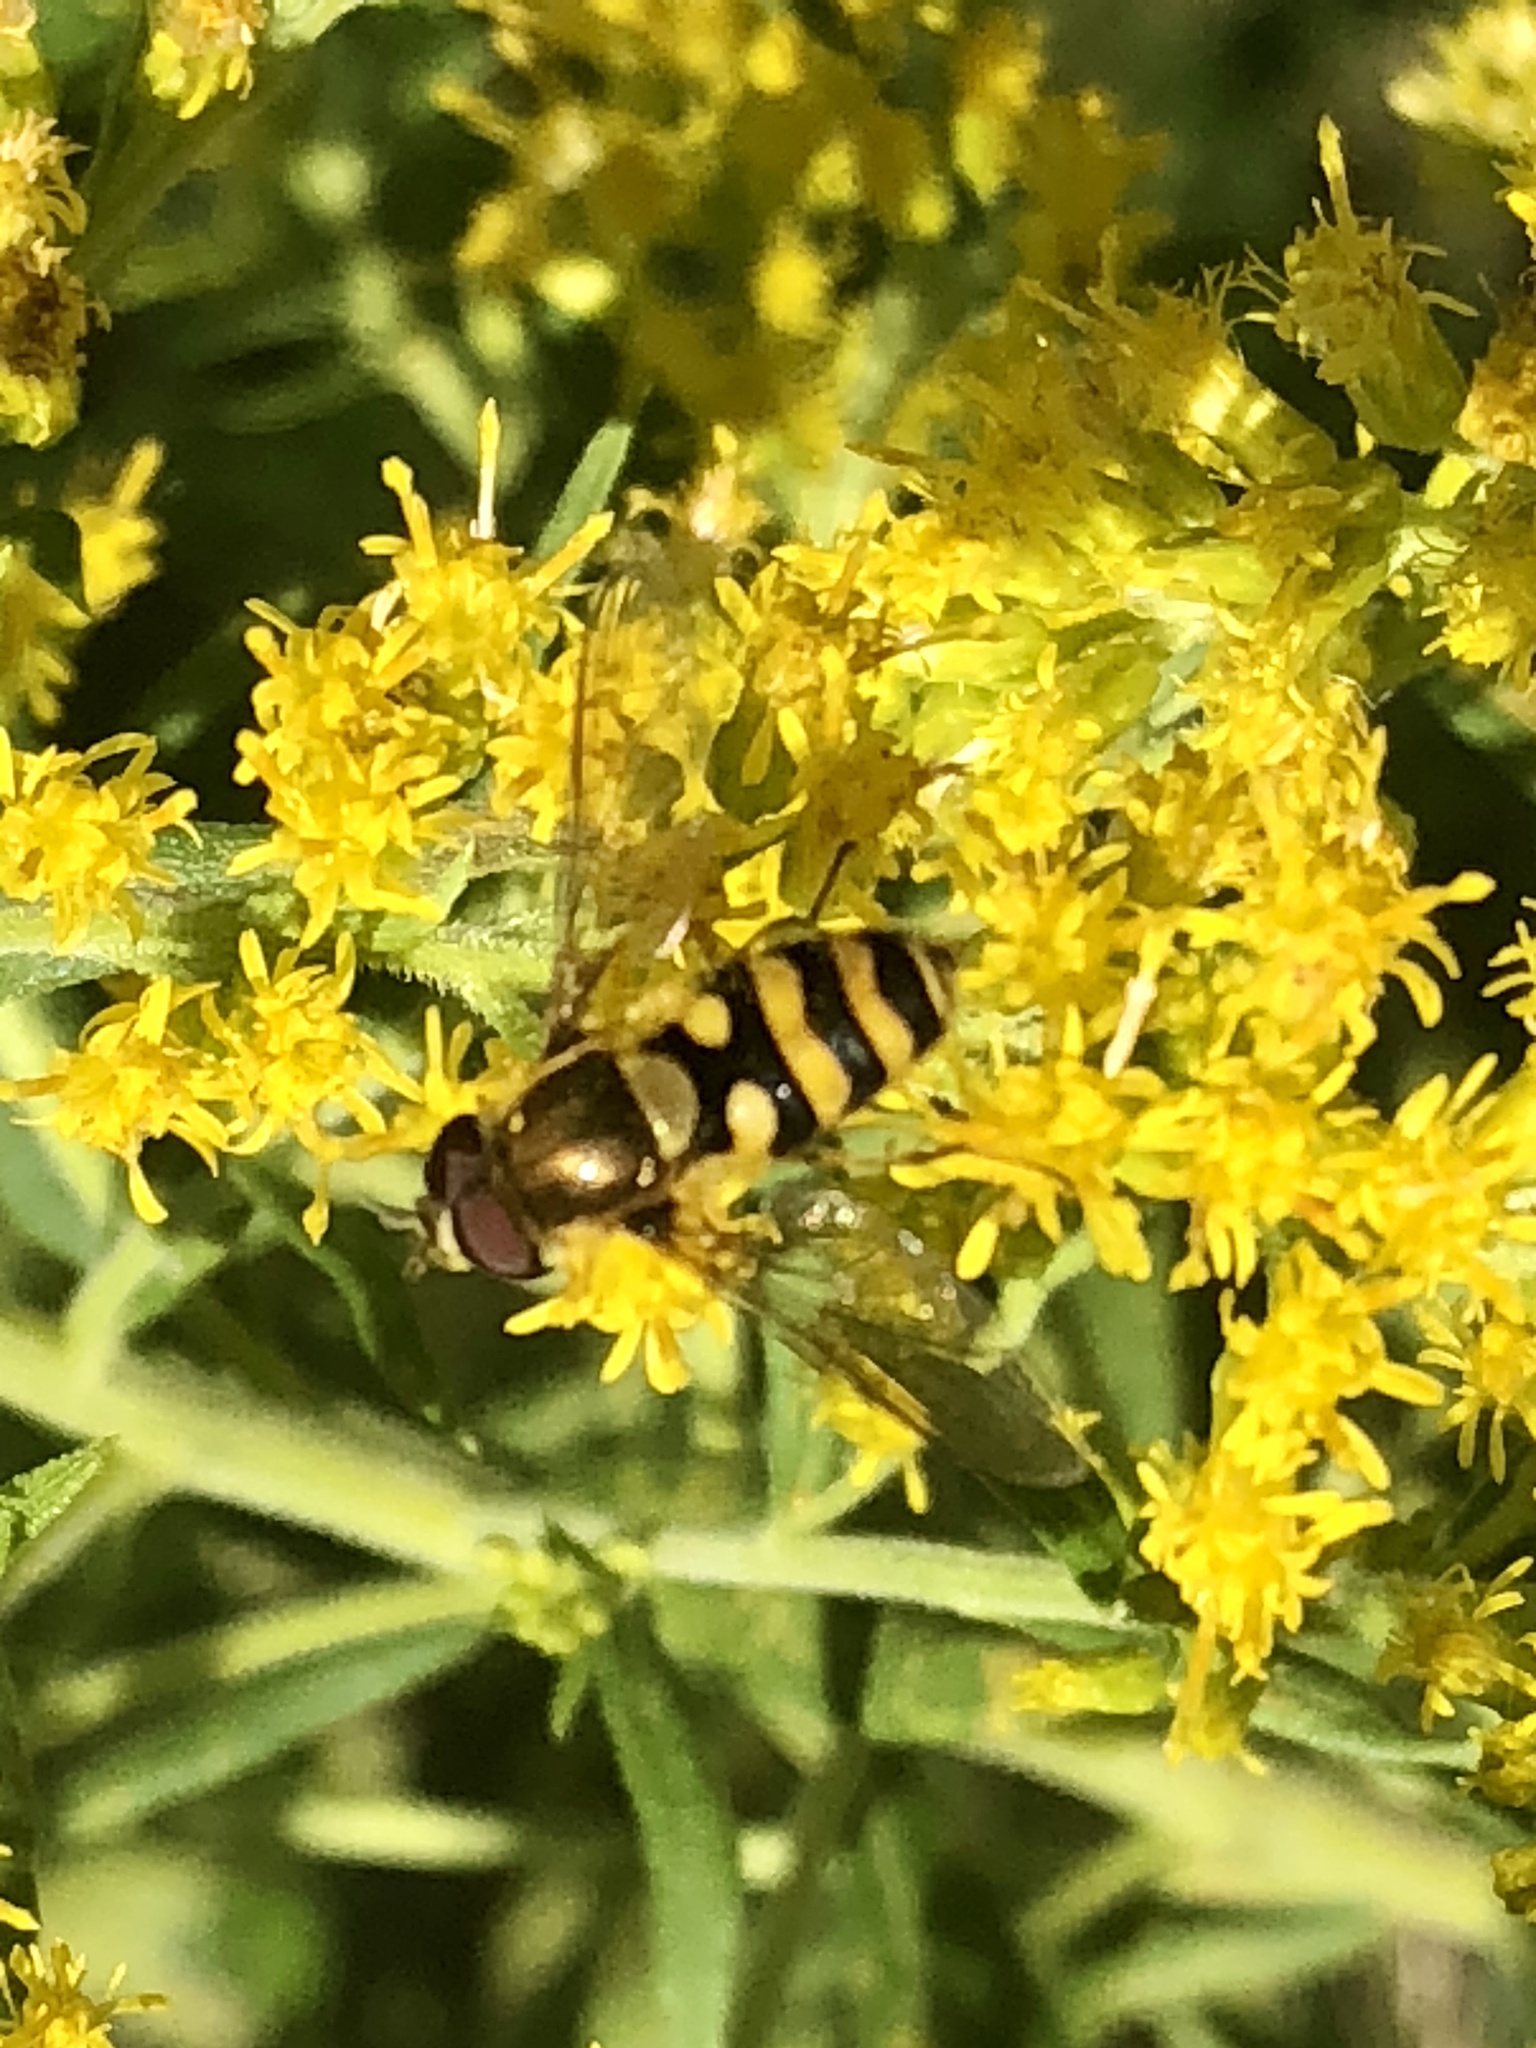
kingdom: Animalia
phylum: Arthropoda
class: Insecta
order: Diptera
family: Syrphidae
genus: Syrphus
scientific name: Syrphus
